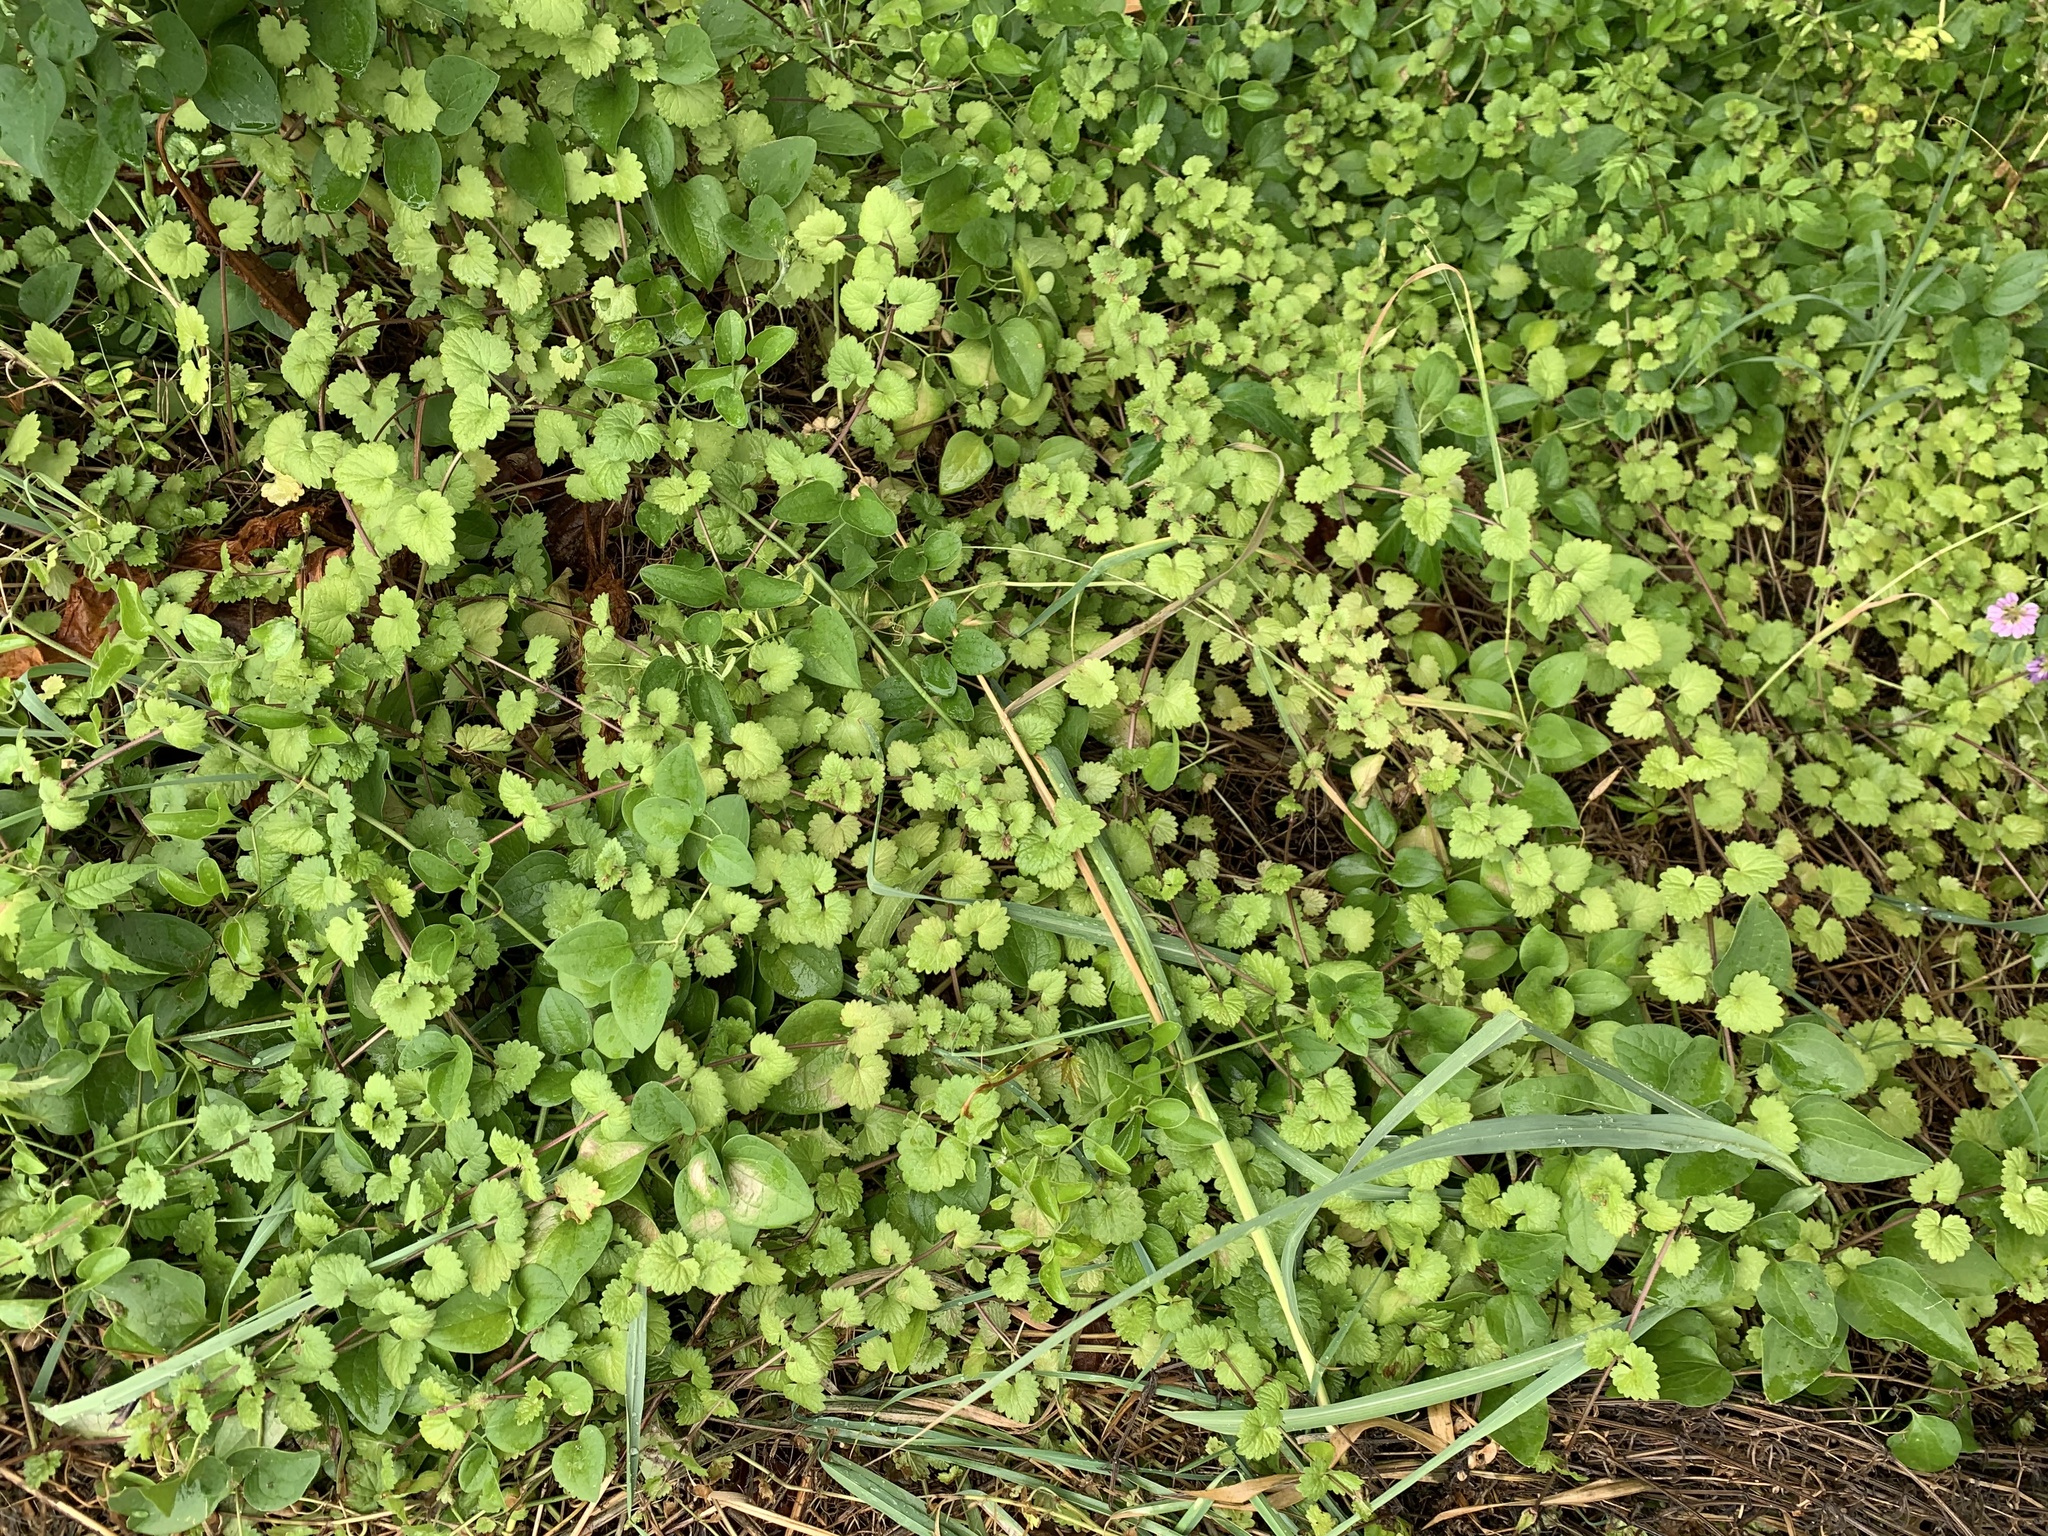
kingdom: Plantae
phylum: Tracheophyta
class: Magnoliopsida
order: Lamiales
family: Lamiaceae
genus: Glechoma
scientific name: Glechoma hederacea
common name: Ground ivy
